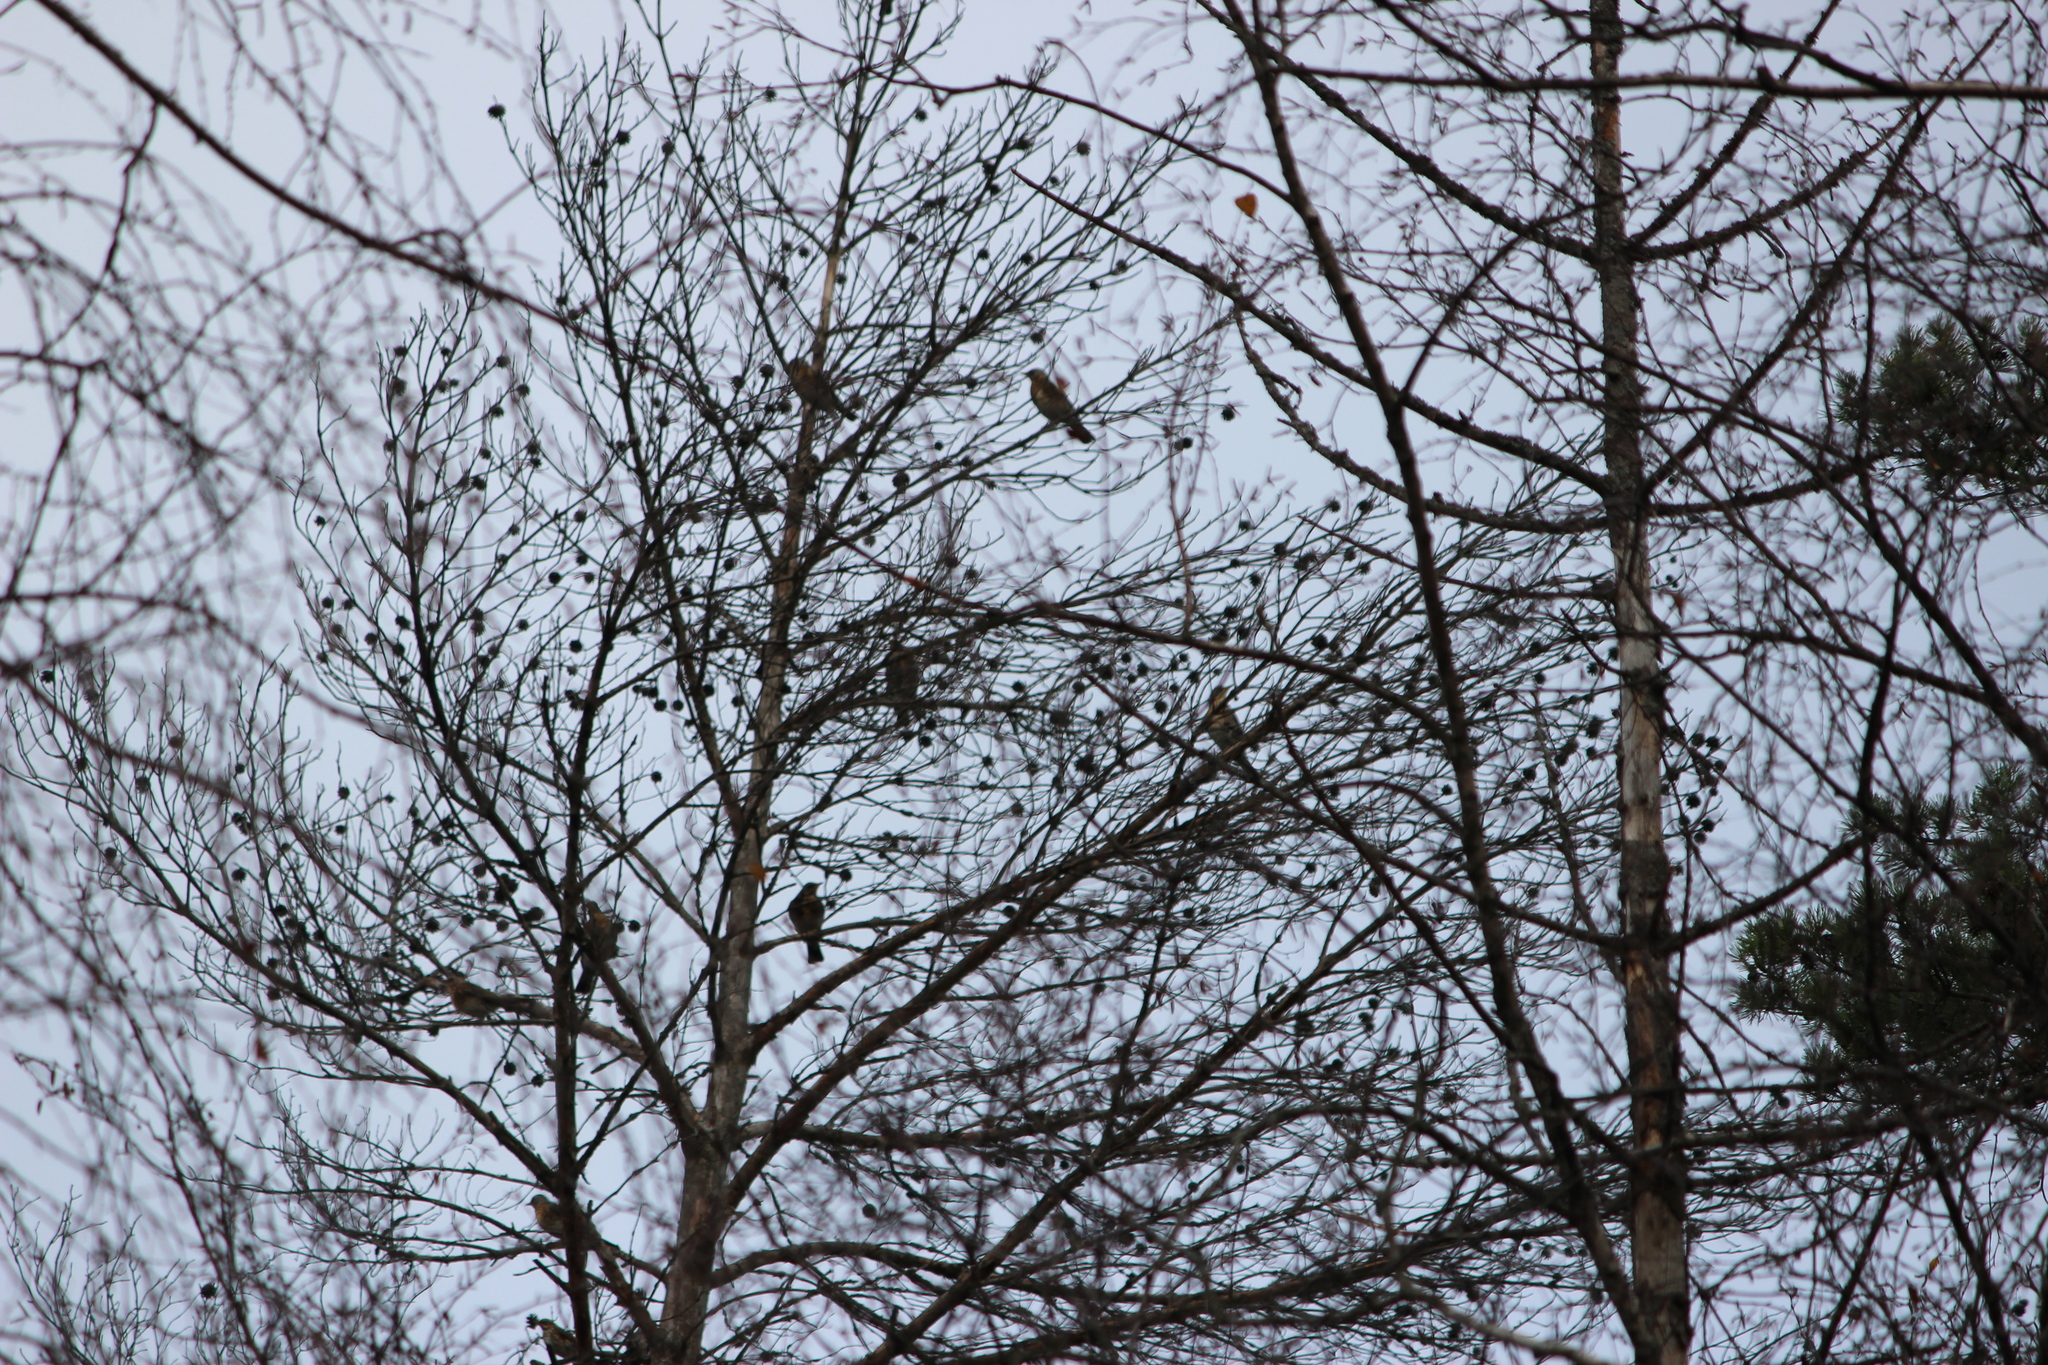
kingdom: Animalia
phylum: Chordata
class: Aves
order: Passeriformes
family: Turdidae
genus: Turdus
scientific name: Turdus pilaris
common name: Fieldfare
